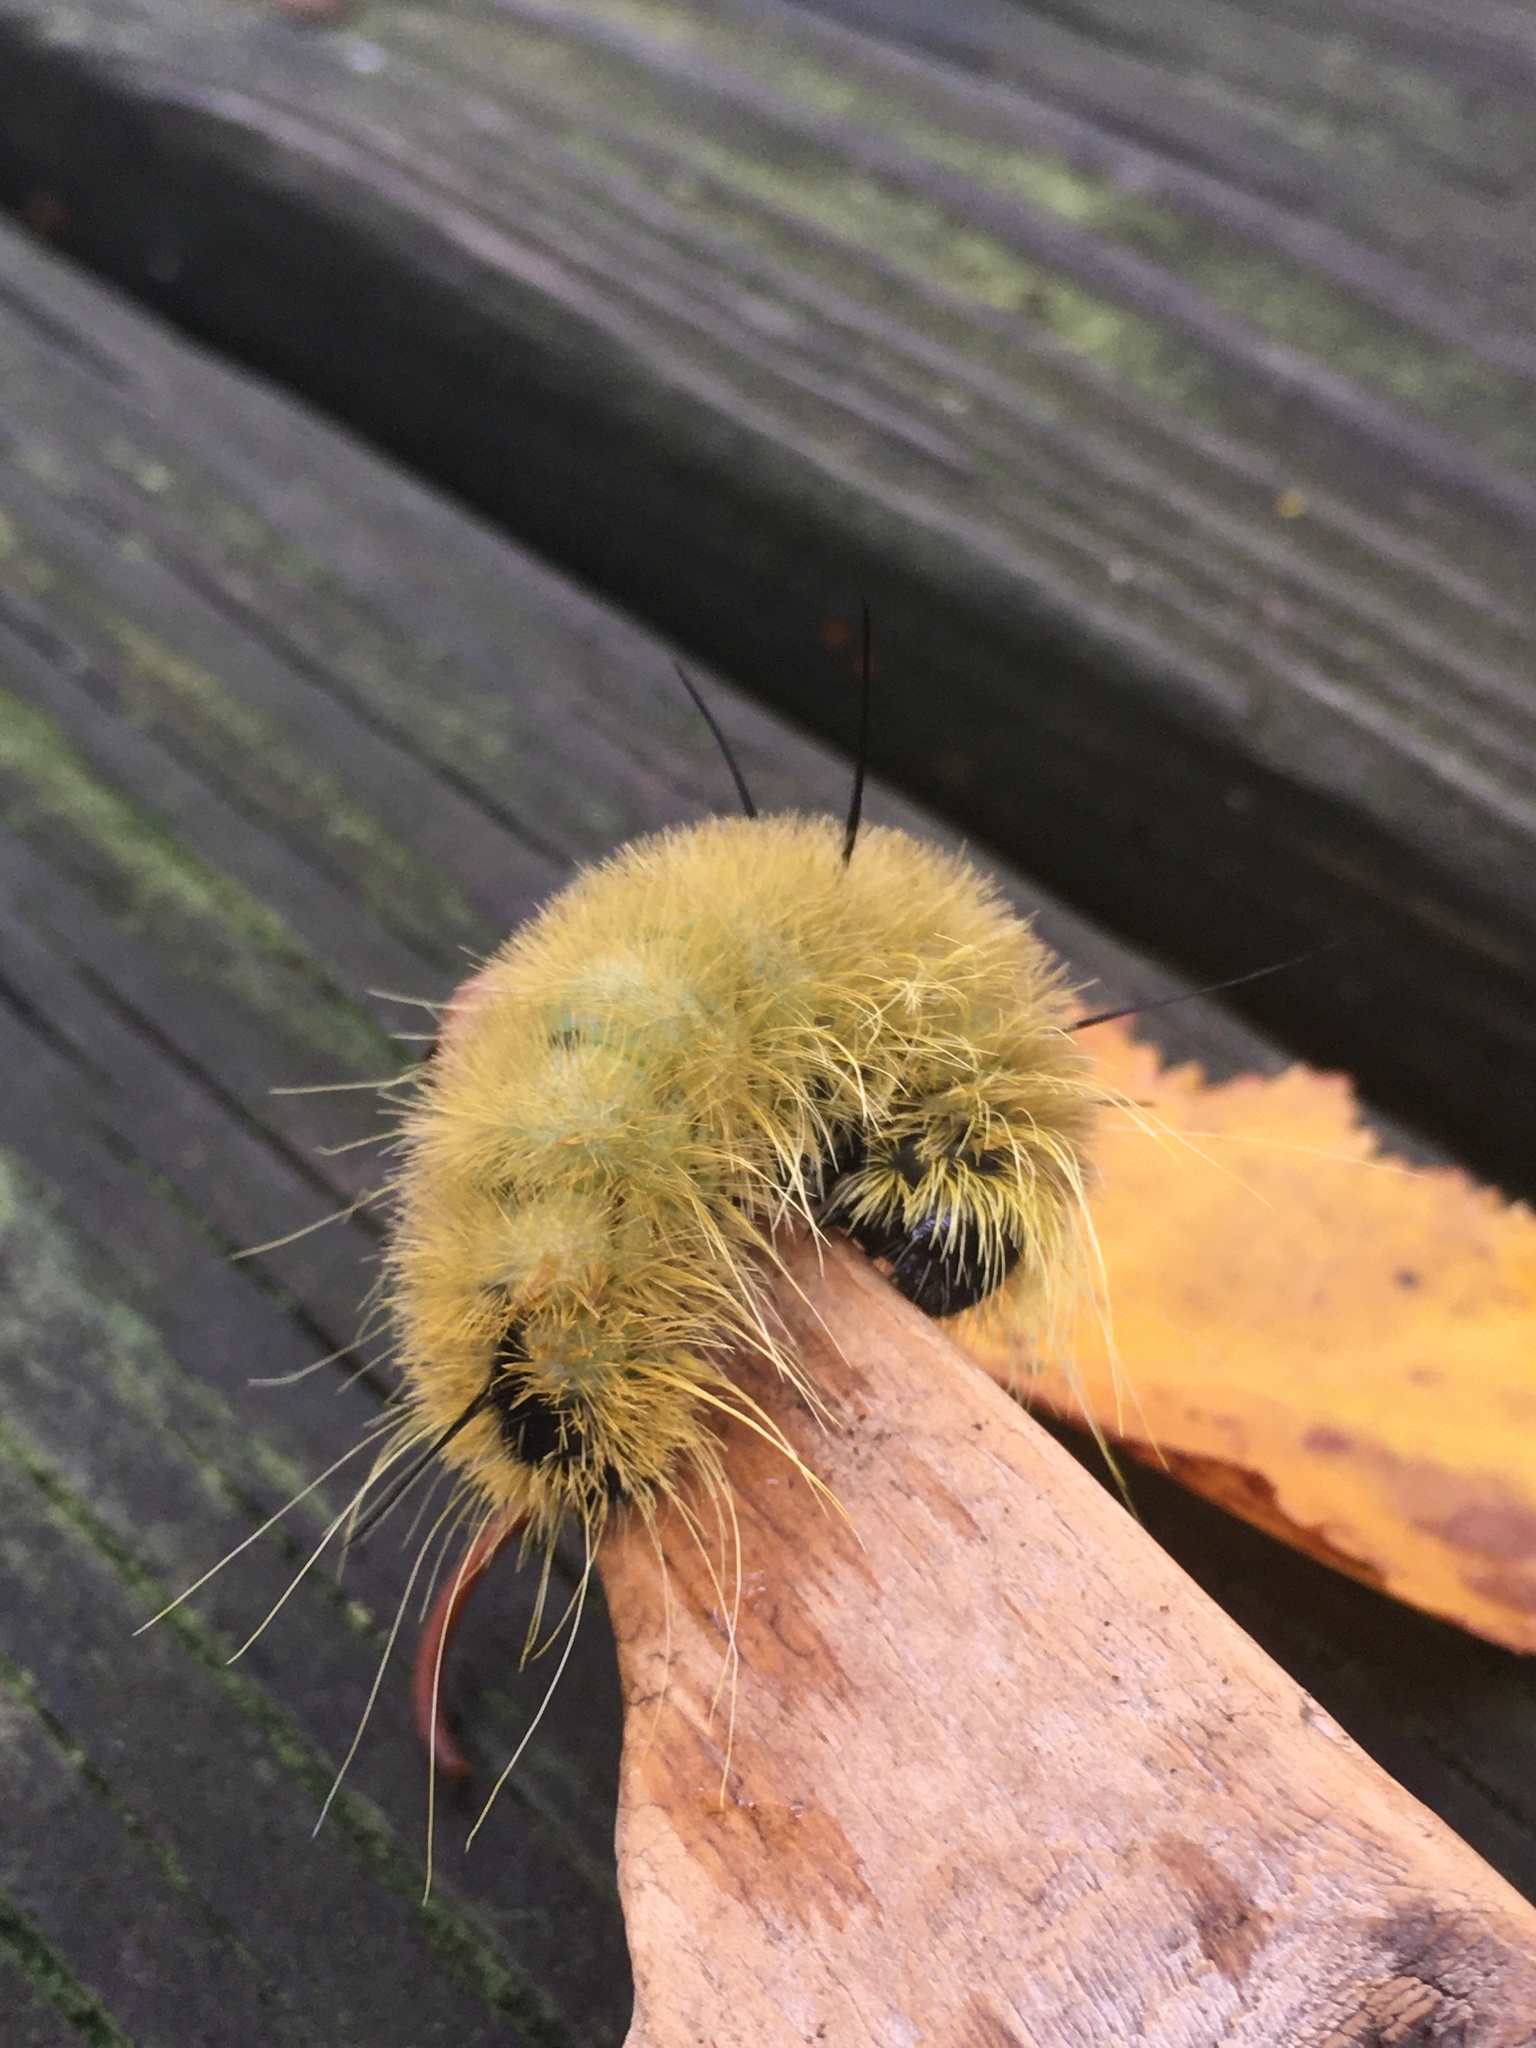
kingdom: Animalia
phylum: Arthropoda
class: Insecta
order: Lepidoptera
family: Noctuidae
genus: Acronicta
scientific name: Acronicta americana
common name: American dagger
